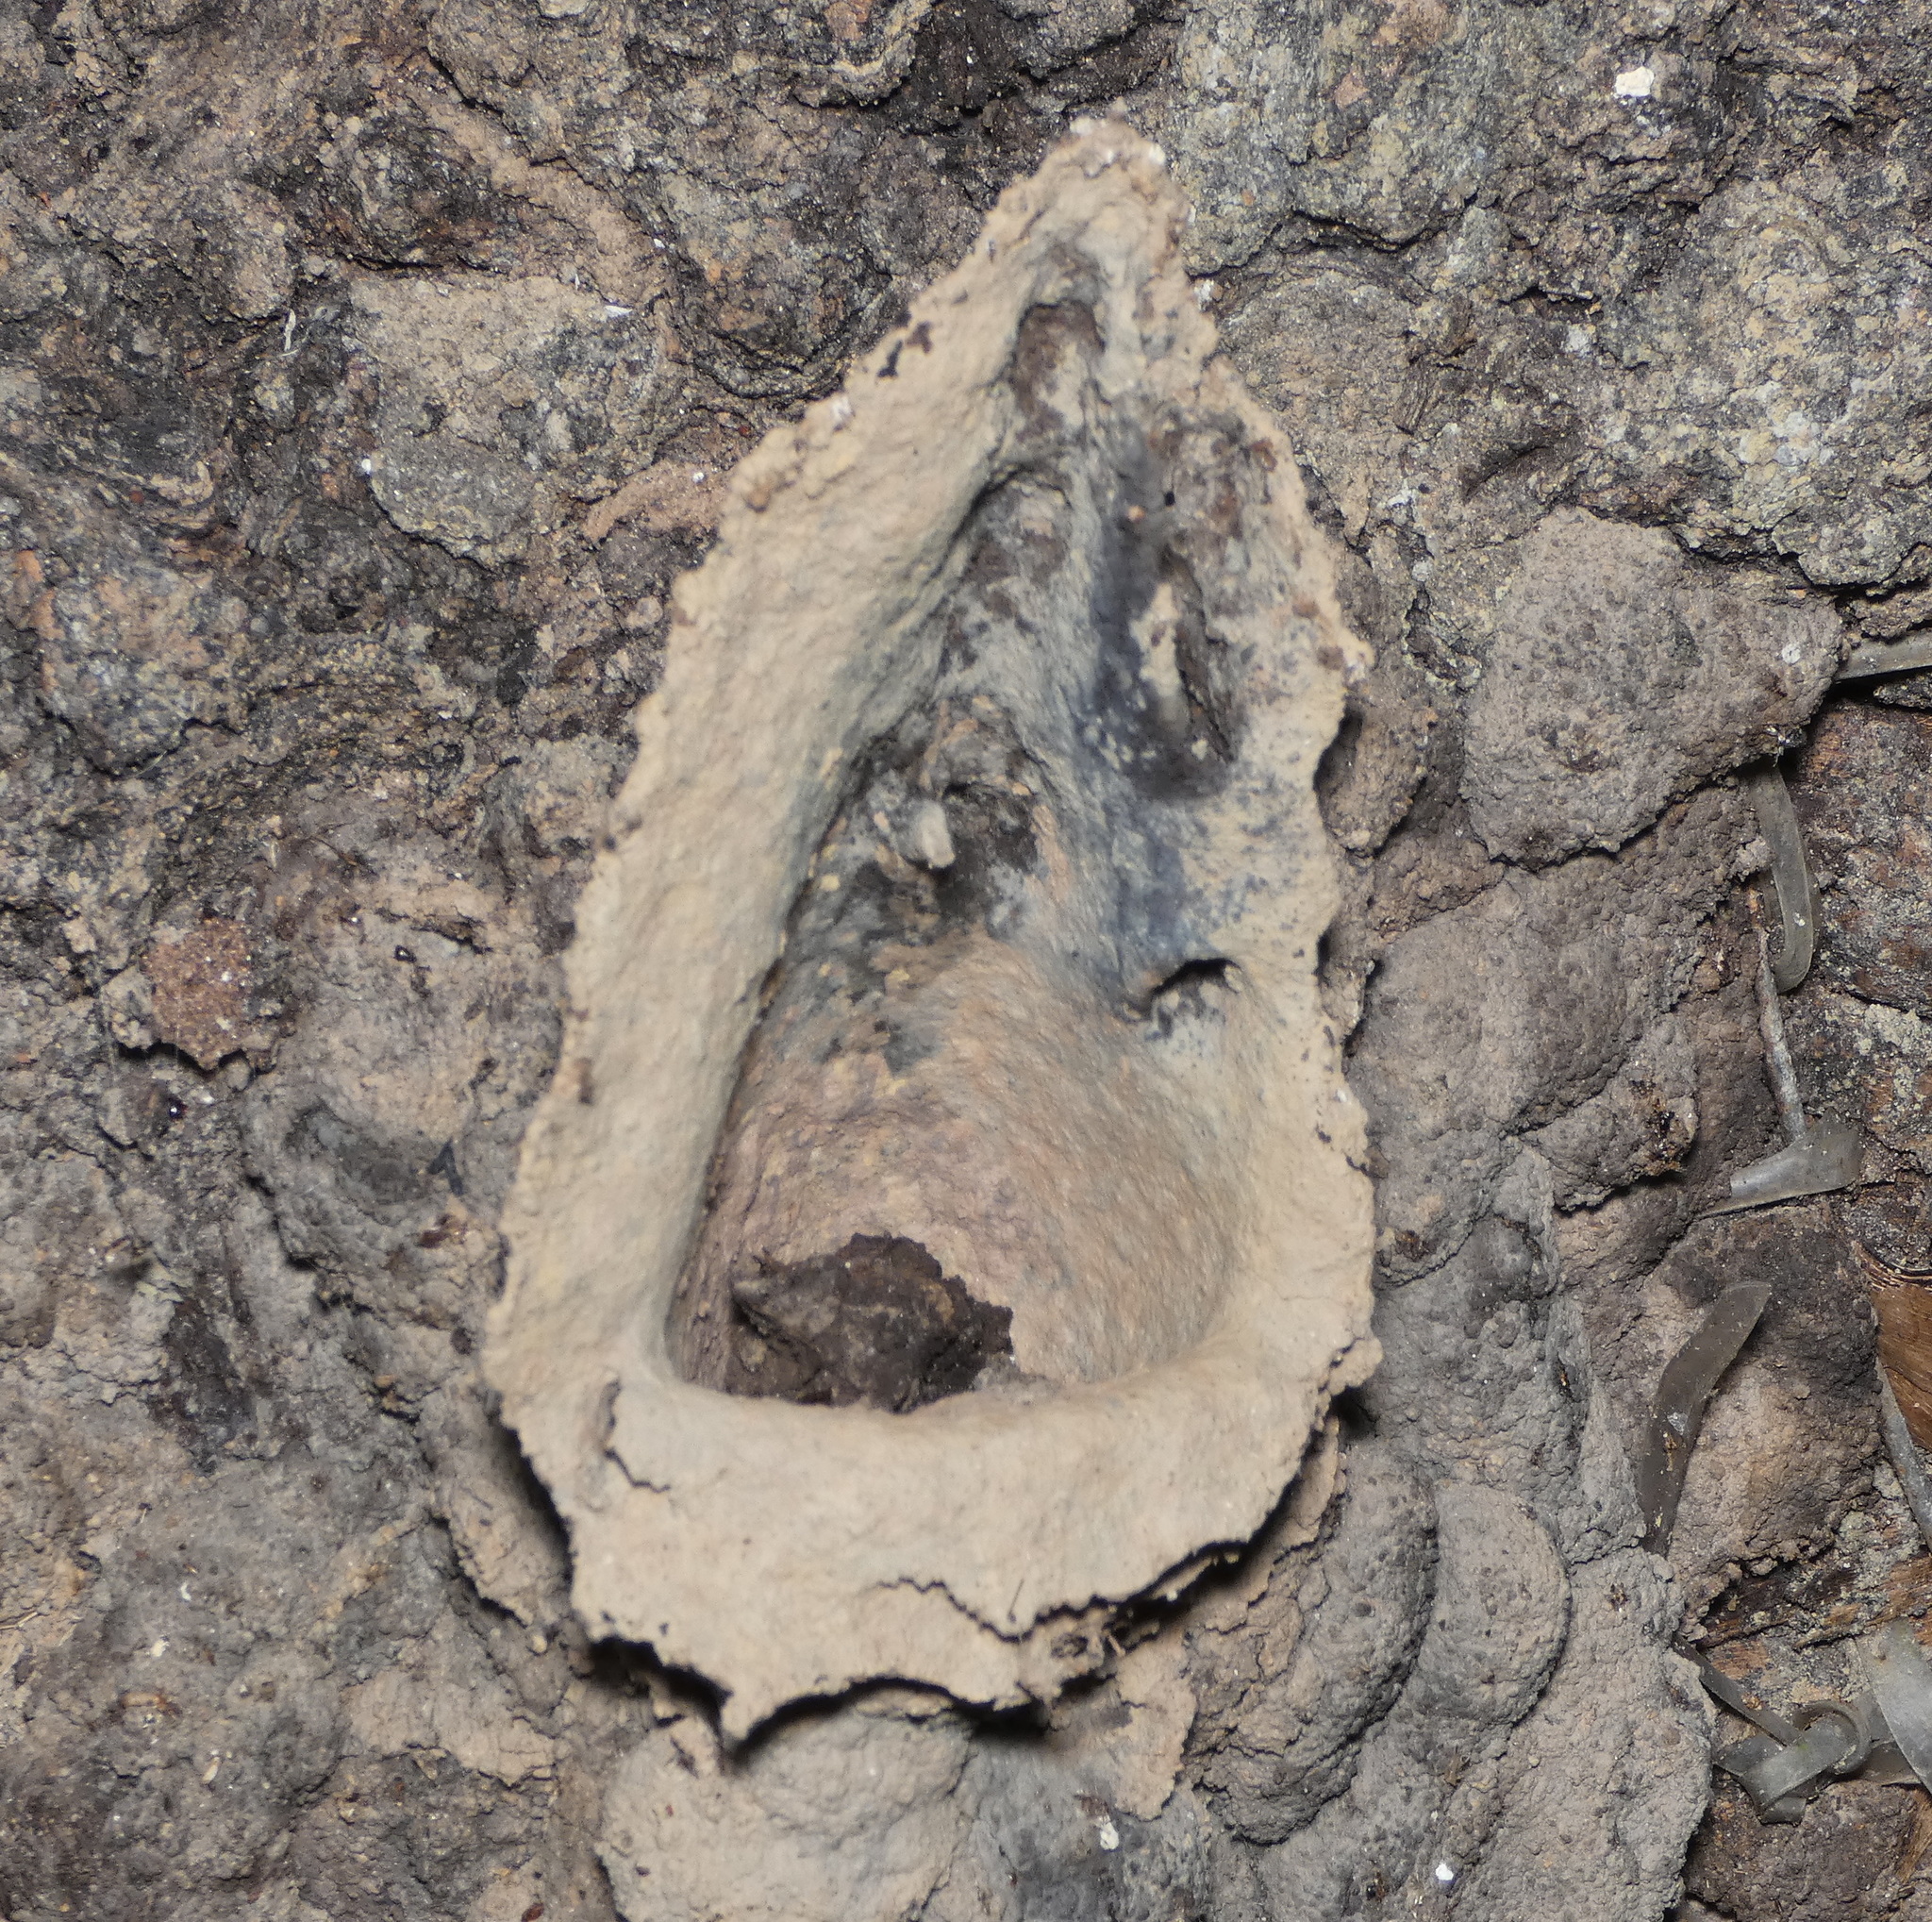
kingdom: Animalia
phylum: Arthropoda
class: Insecta
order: Hymenoptera
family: Apidae
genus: Partamona
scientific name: Partamona helleri
